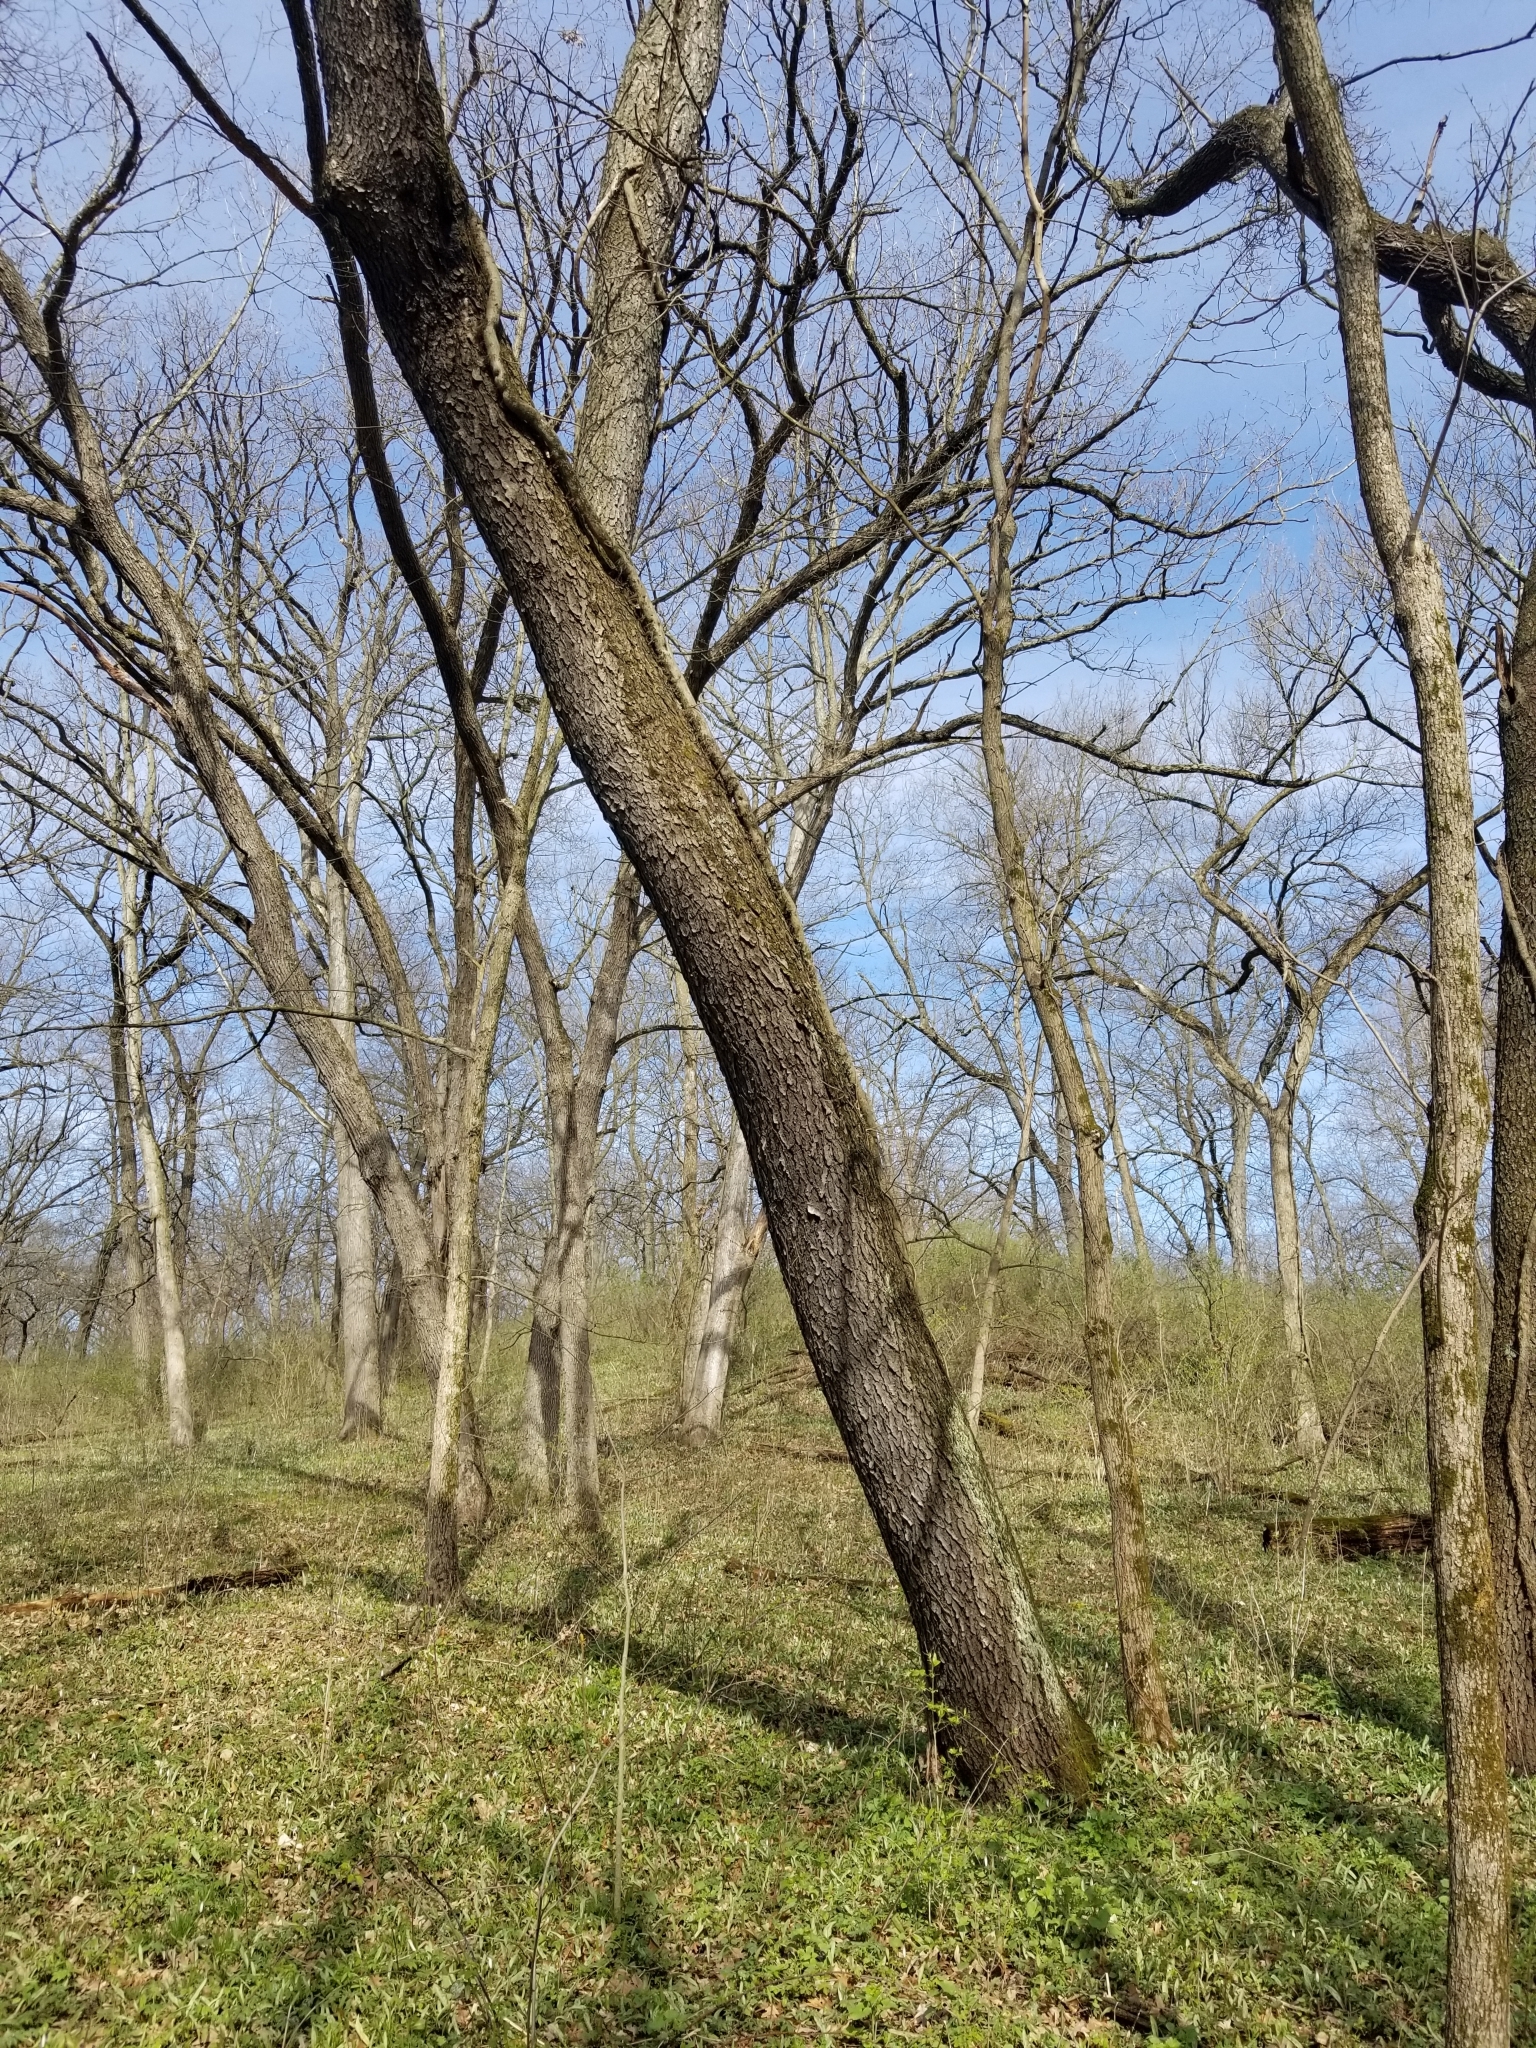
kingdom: Plantae
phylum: Tracheophyta
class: Magnoliopsida
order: Rosales
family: Rosaceae
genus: Prunus
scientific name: Prunus serotina
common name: Black cherry
